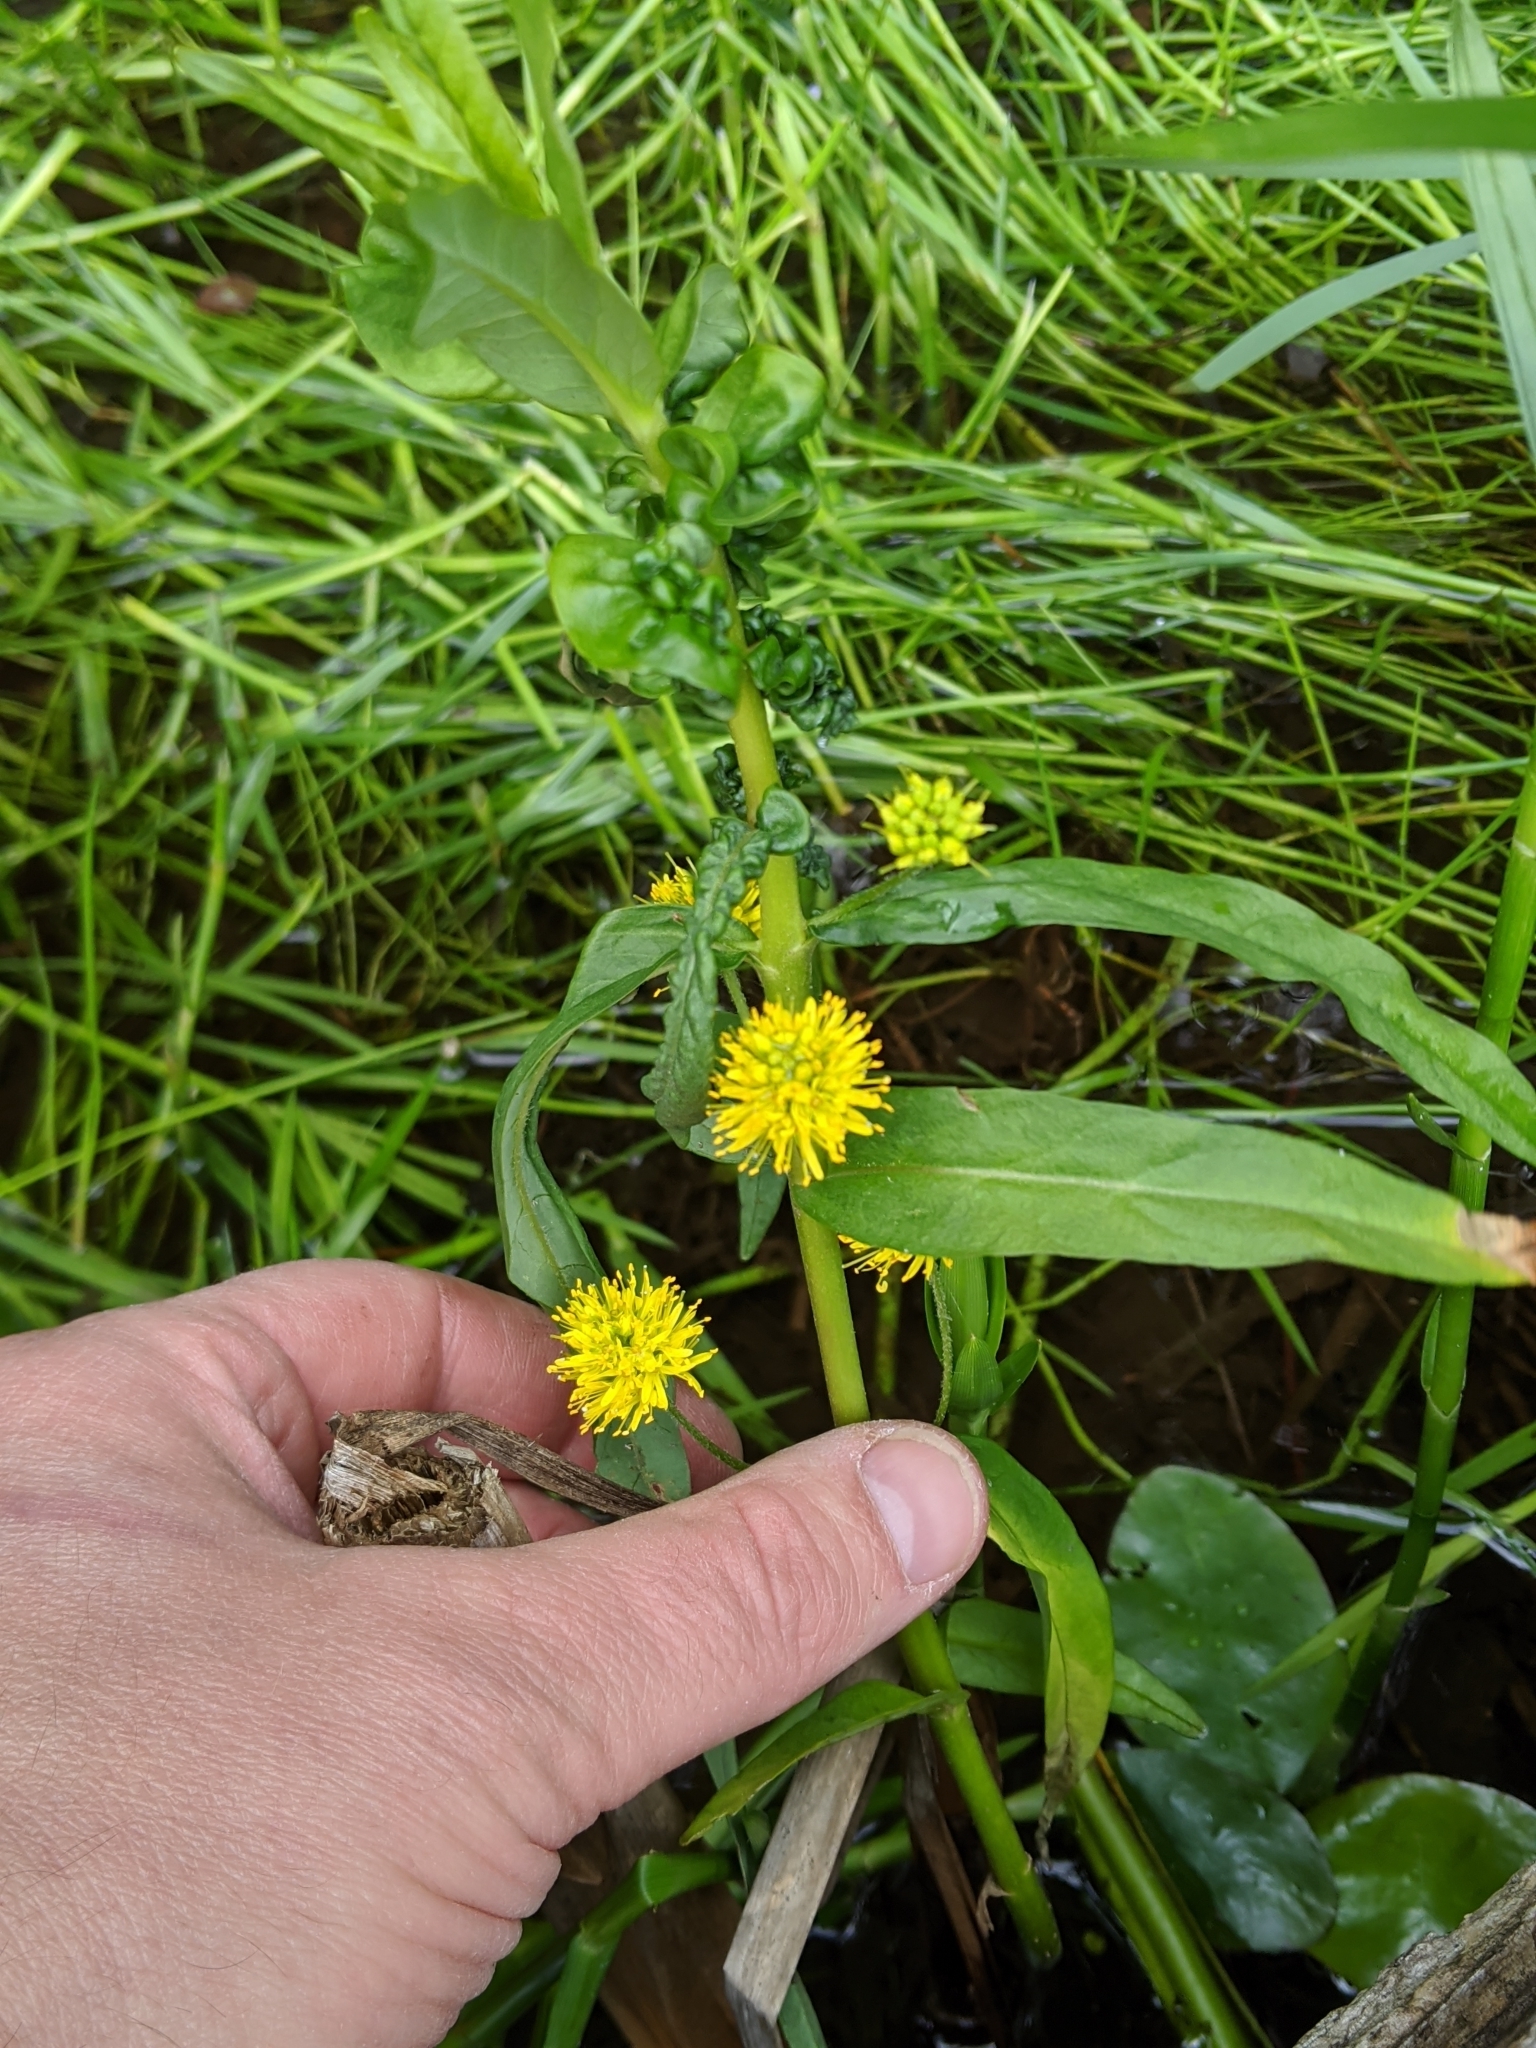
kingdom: Plantae
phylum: Tracheophyta
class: Magnoliopsida
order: Ericales
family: Primulaceae
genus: Lysimachia
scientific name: Lysimachia thyrsiflora
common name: Tufted loosestrife
